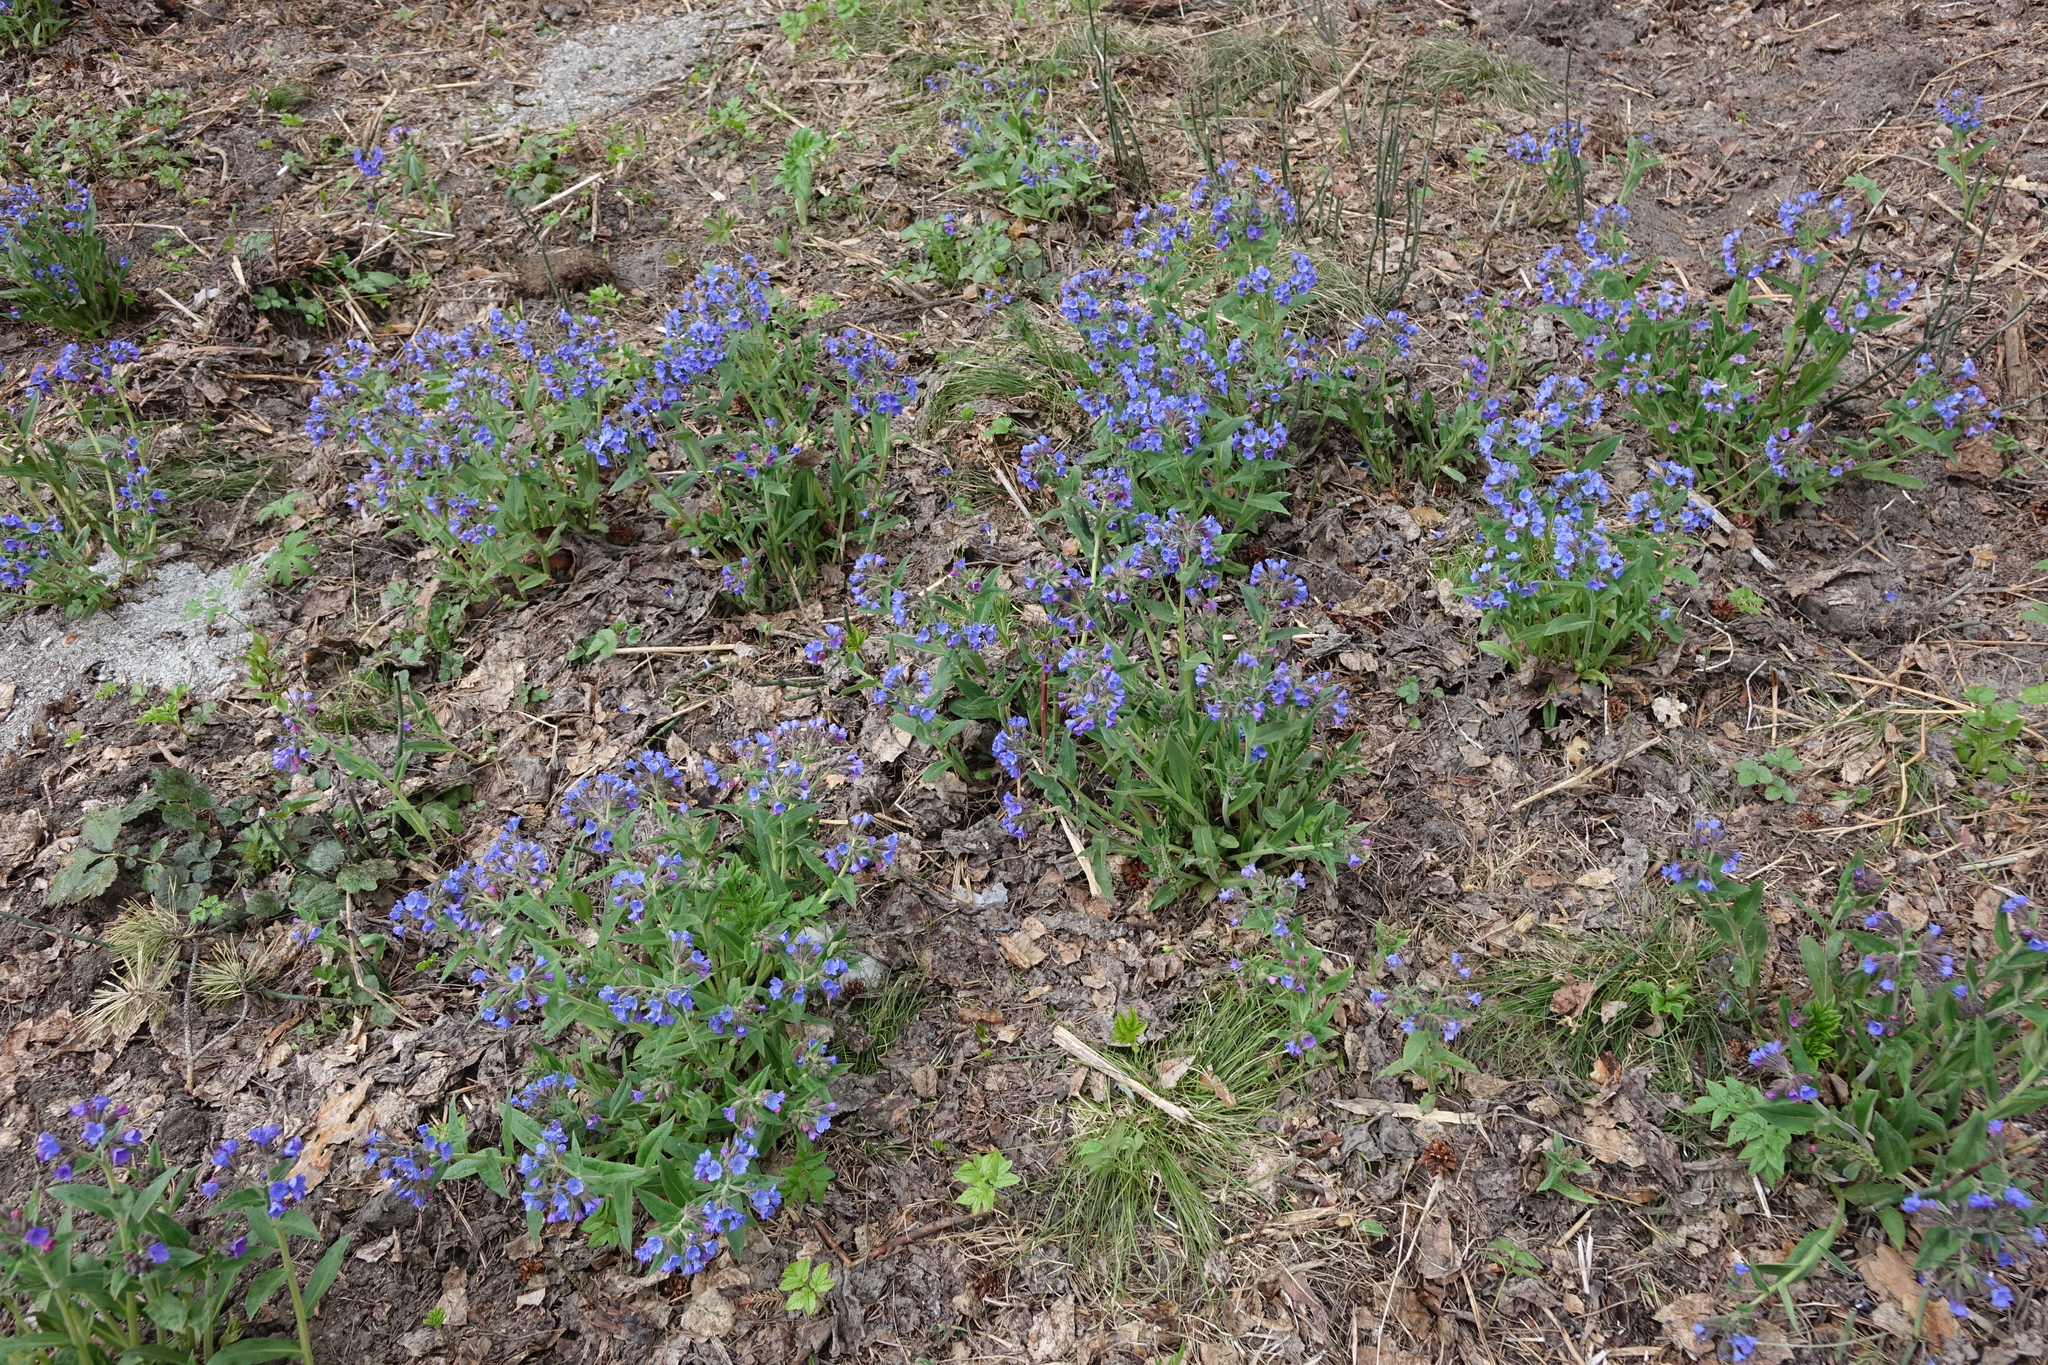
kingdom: Plantae
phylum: Tracheophyta
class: Magnoliopsida
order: Boraginales
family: Boraginaceae
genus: Pulmonaria
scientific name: Pulmonaria mollis
